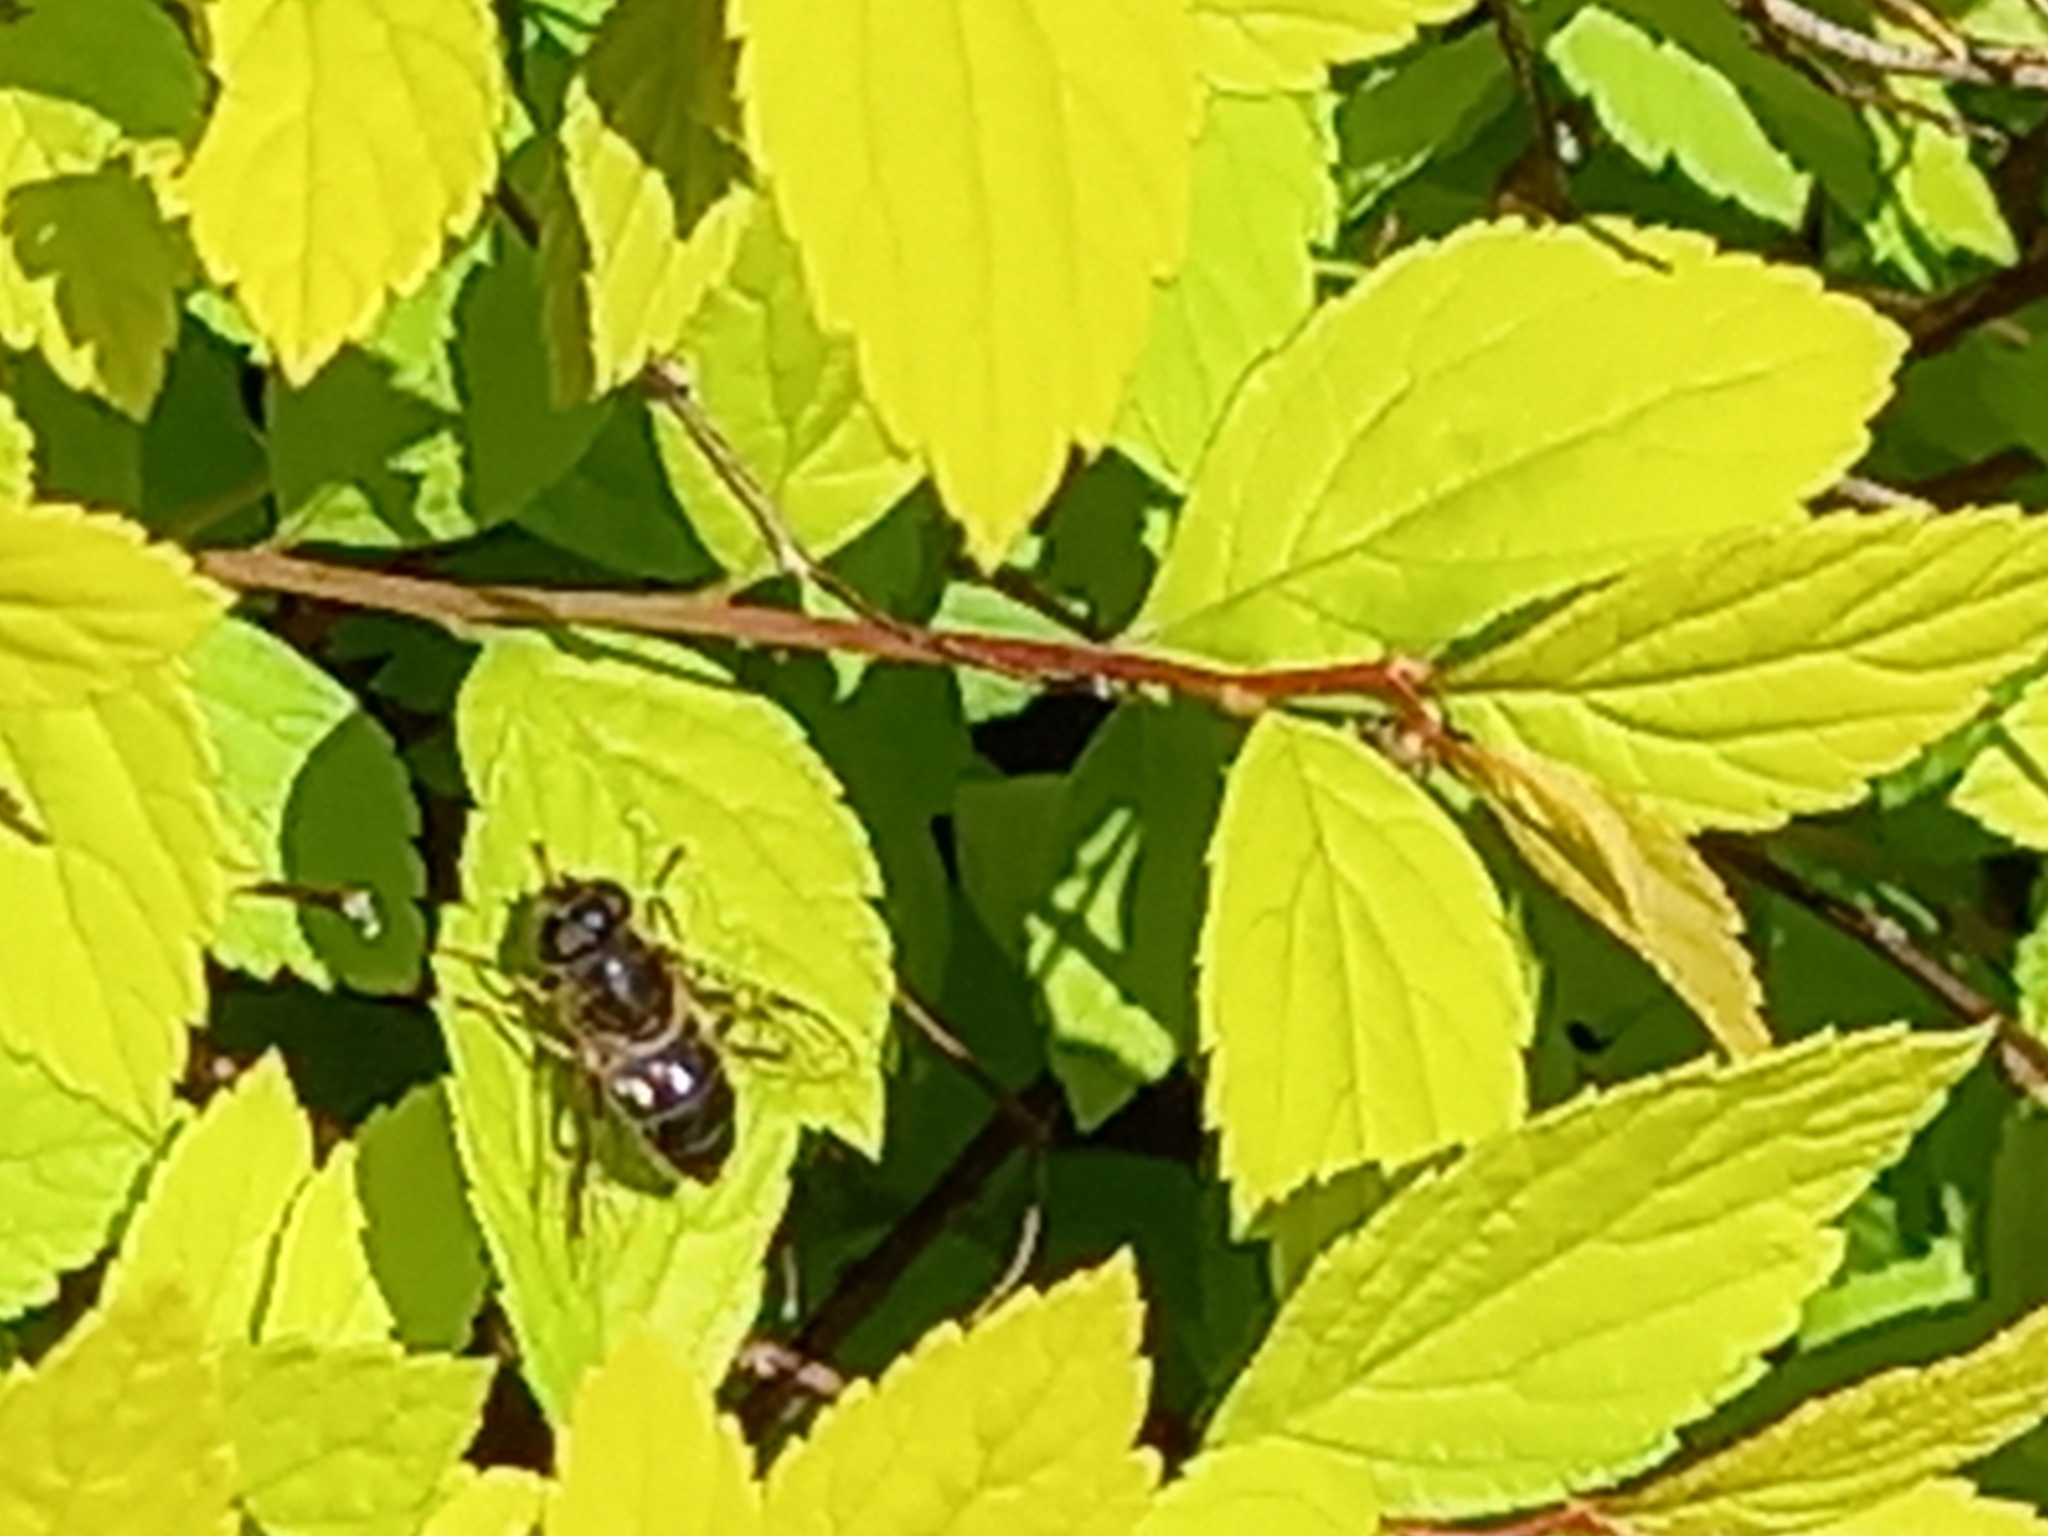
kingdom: Animalia
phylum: Arthropoda
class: Insecta
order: Diptera
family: Syrphidae
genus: Eristalis
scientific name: Eristalis pertinax
